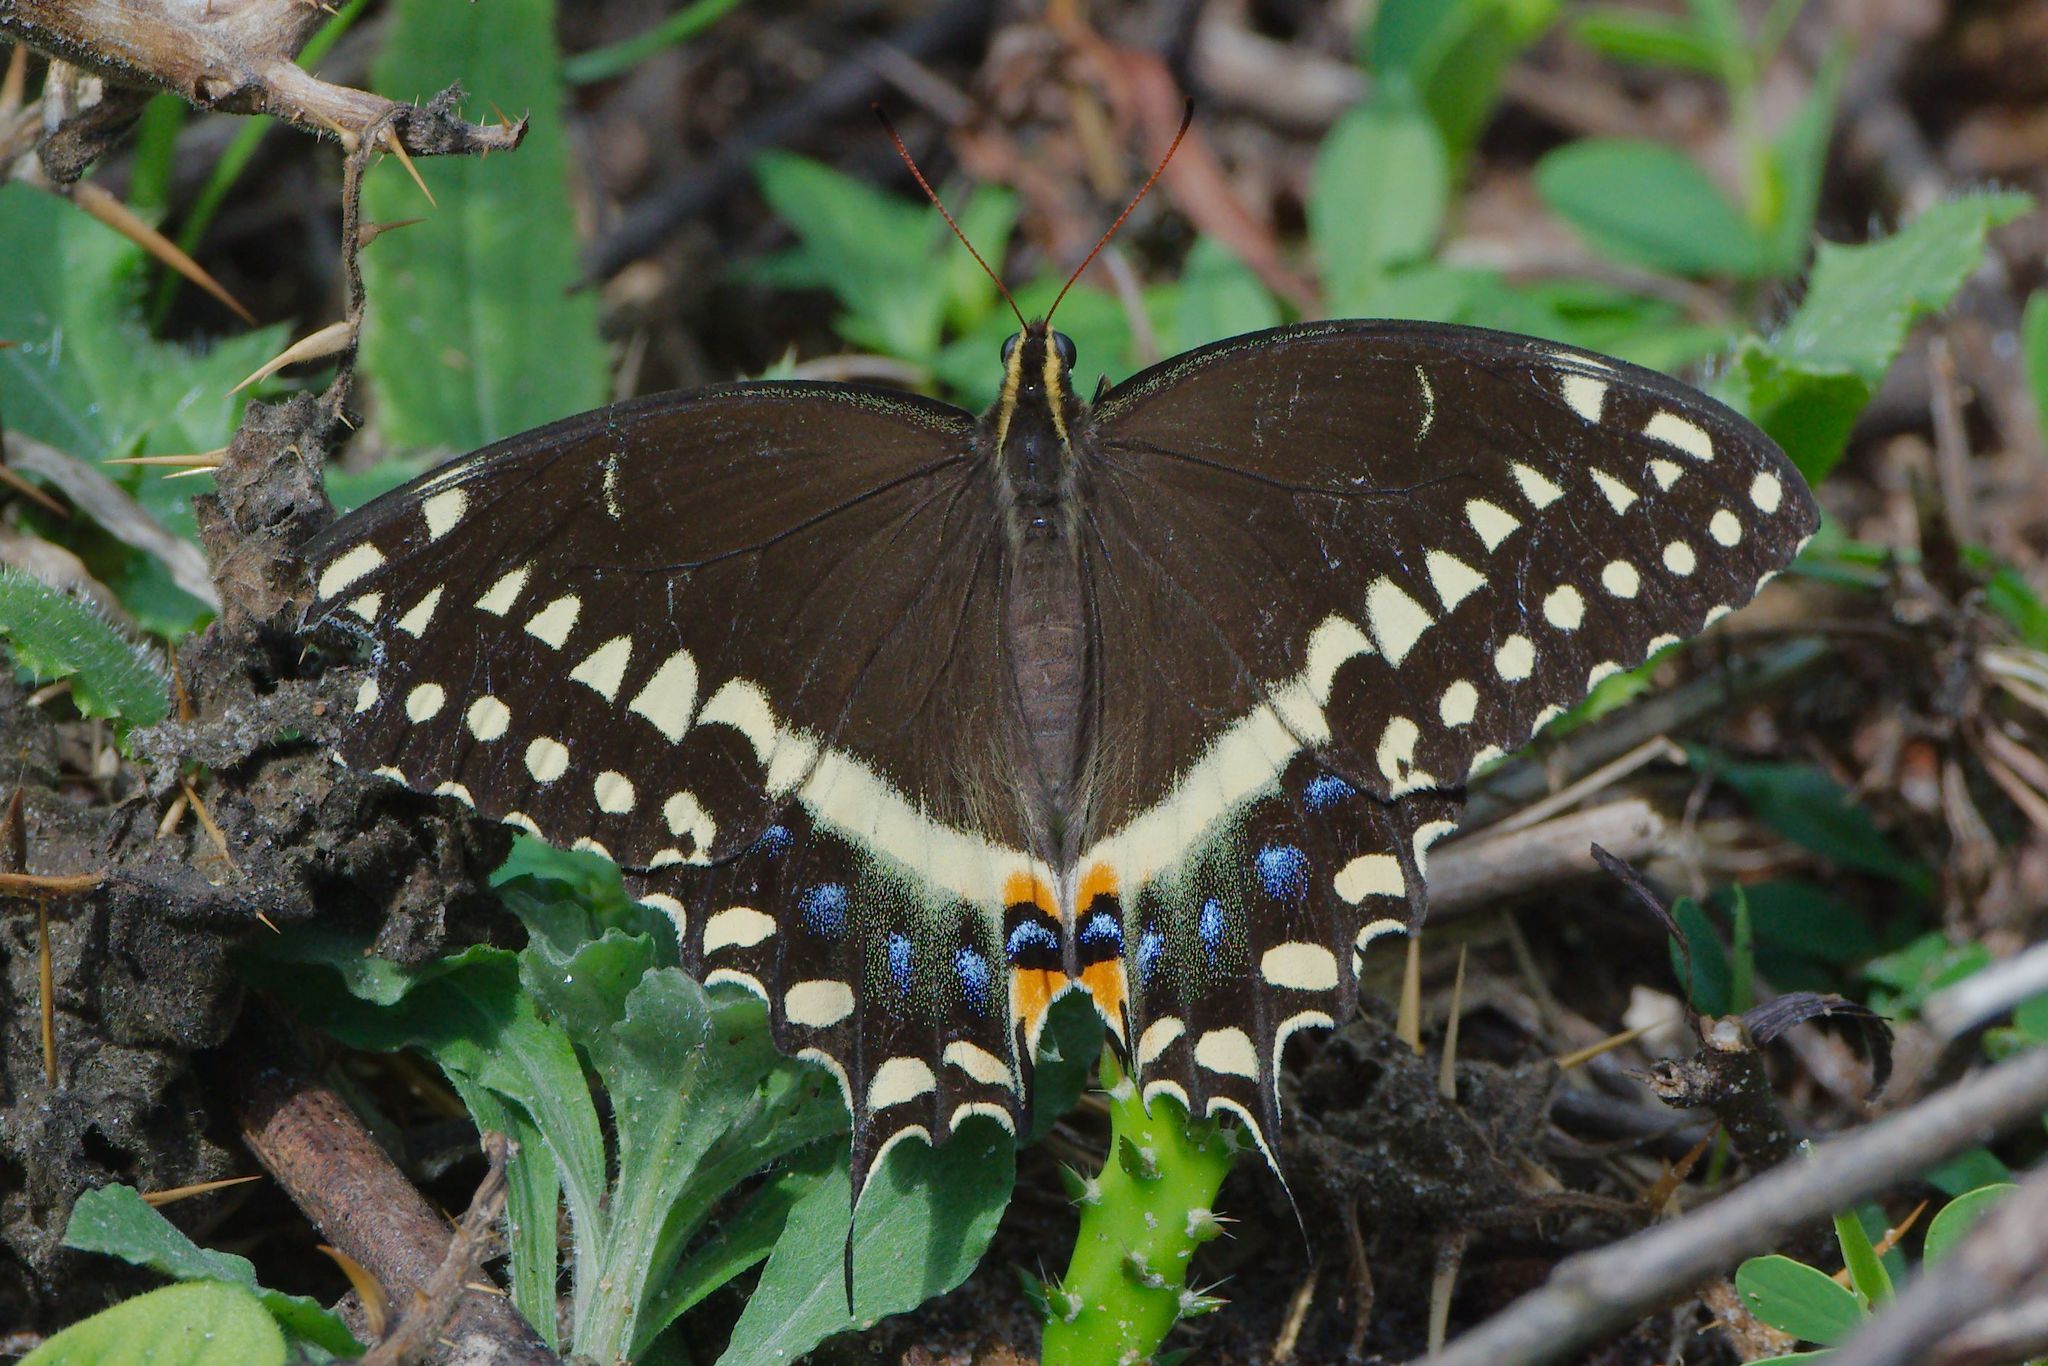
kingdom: Animalia
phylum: Arthropoda
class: Insecta
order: Lepidoptera
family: Papilionidae
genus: Papilio
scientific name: Papilio palamedes
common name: Palamedes swallowtail
